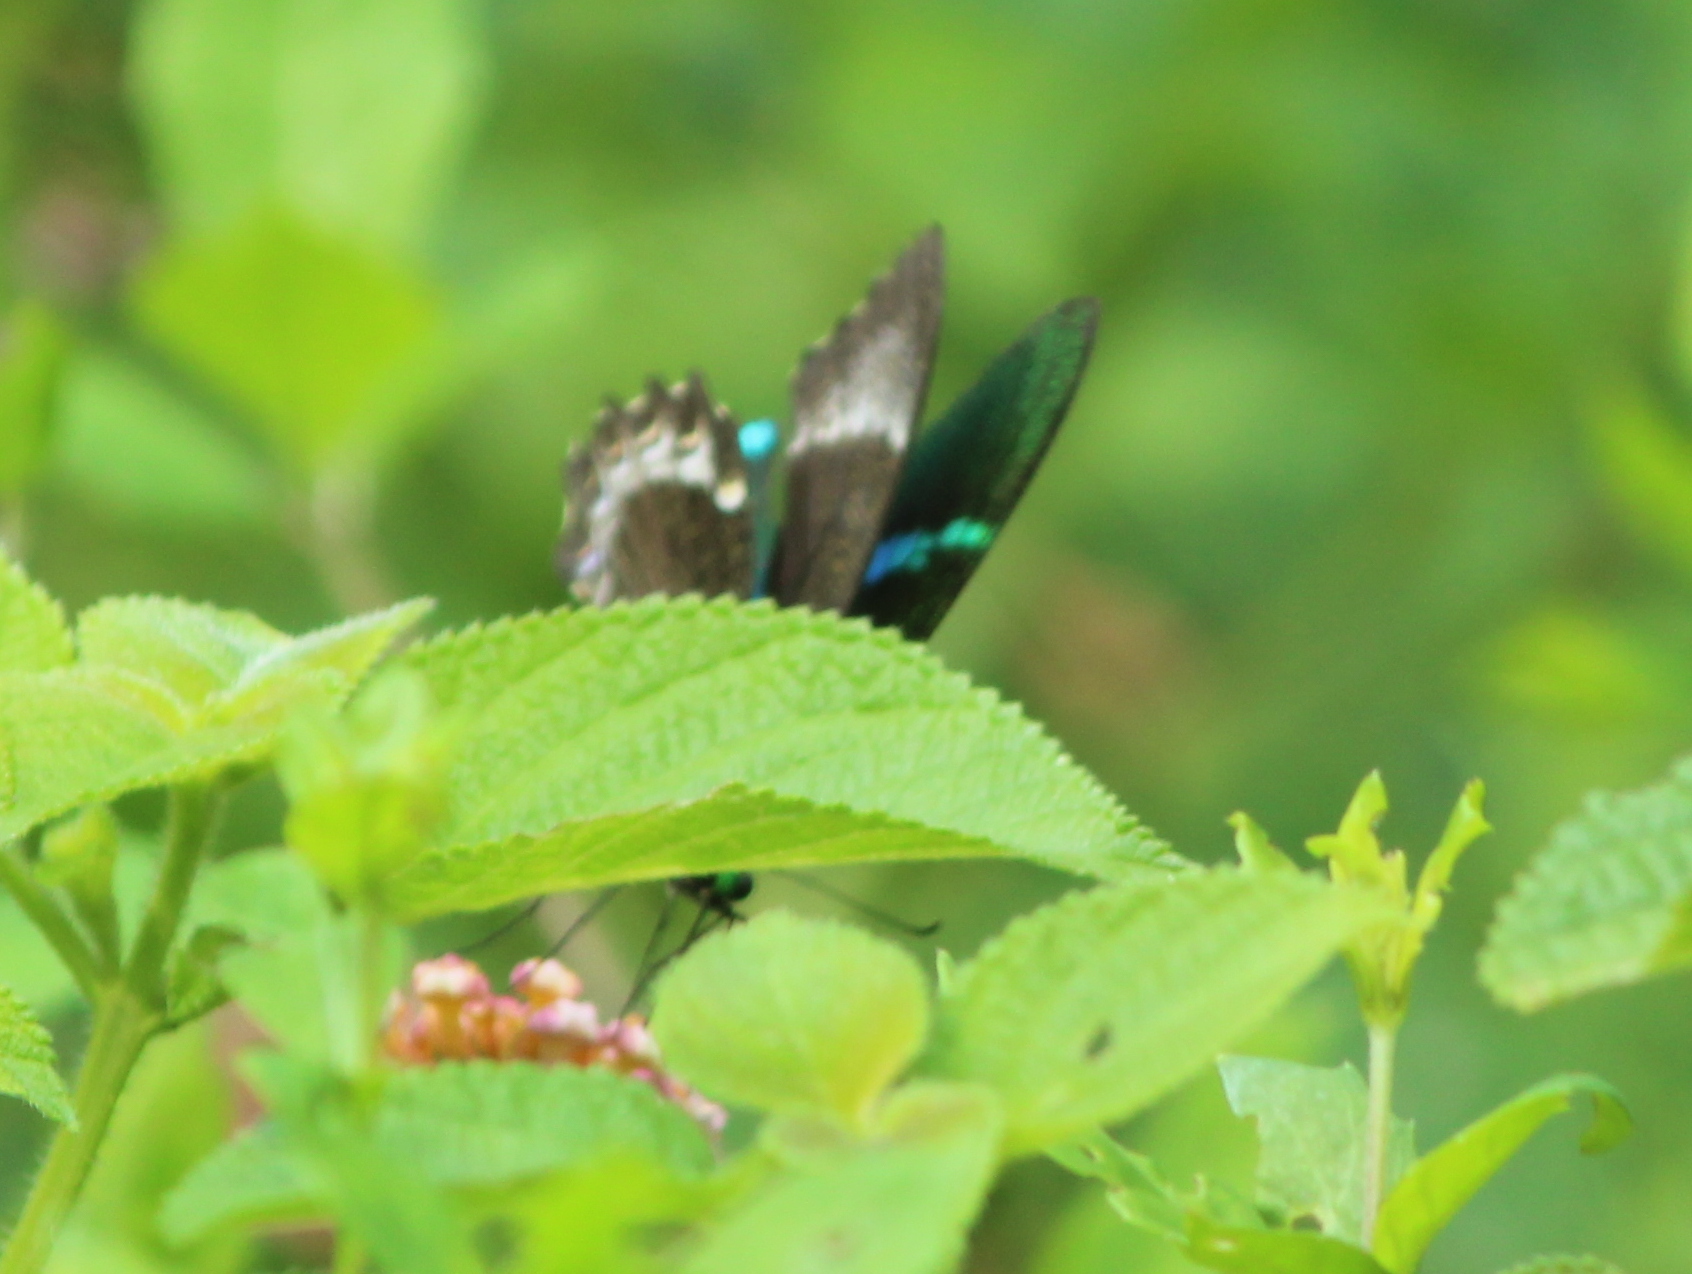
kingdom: Animalia
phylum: Arthropoda
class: Insecta
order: Lepidoptera
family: Papilionidae
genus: Papilio
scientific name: Papilio crino
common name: Common banded peacock
